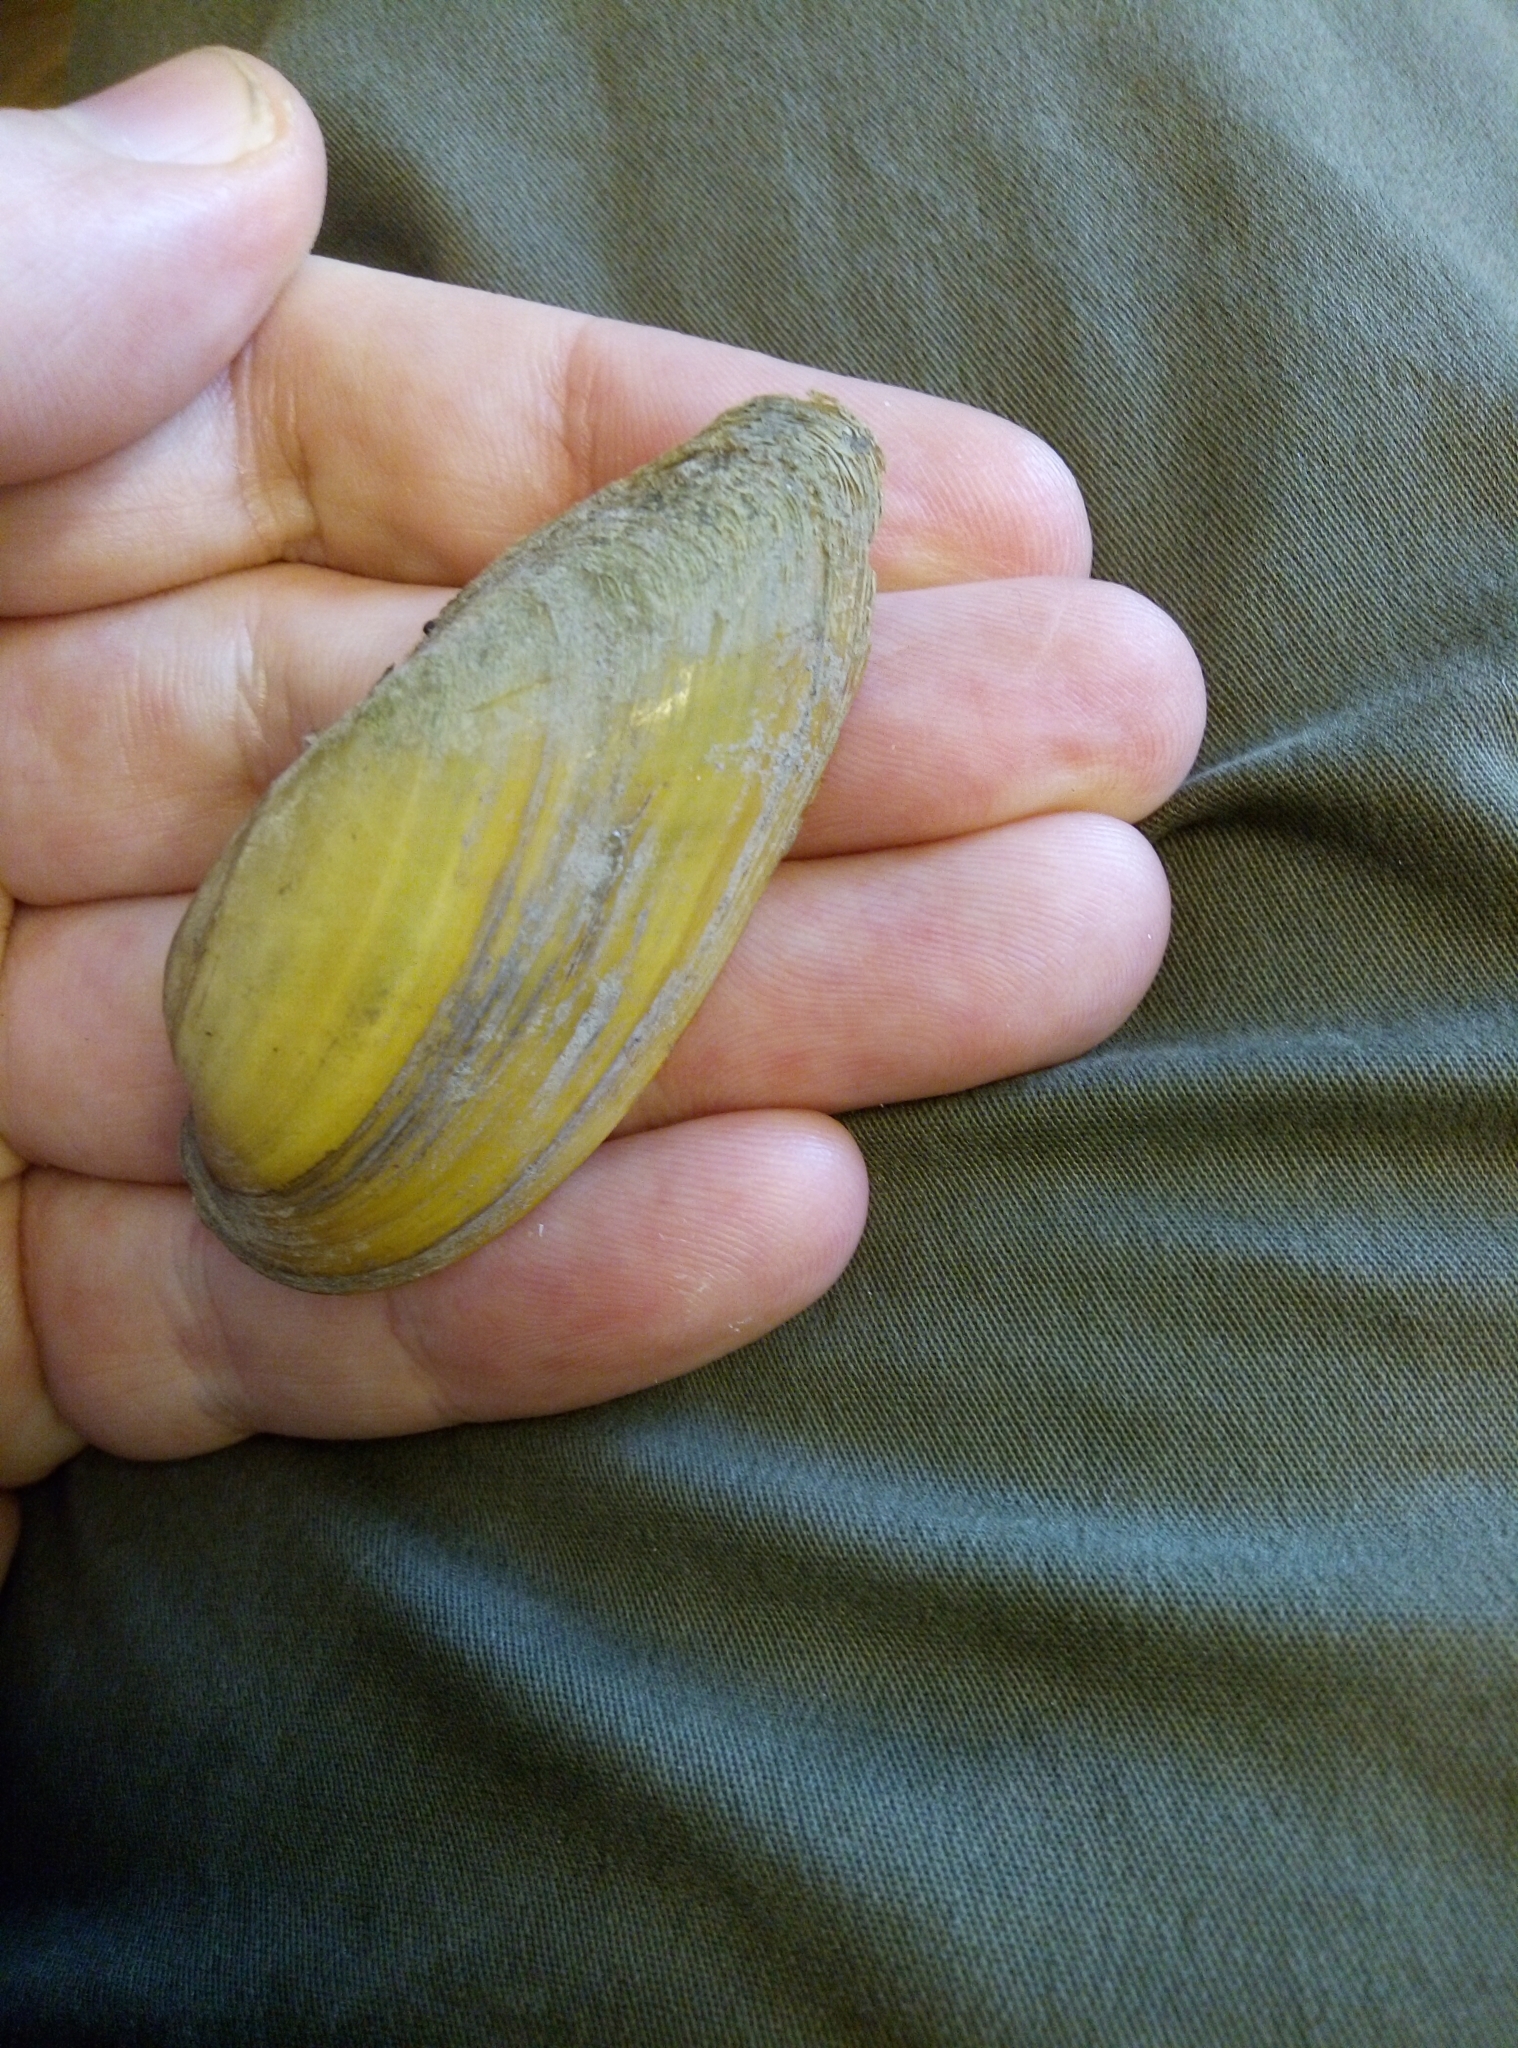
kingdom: Animalia
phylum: Mollusca
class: Bivalvia
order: Unionida
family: Unionidae
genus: Unio
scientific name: Unio pictorum
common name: Painter's mussel
